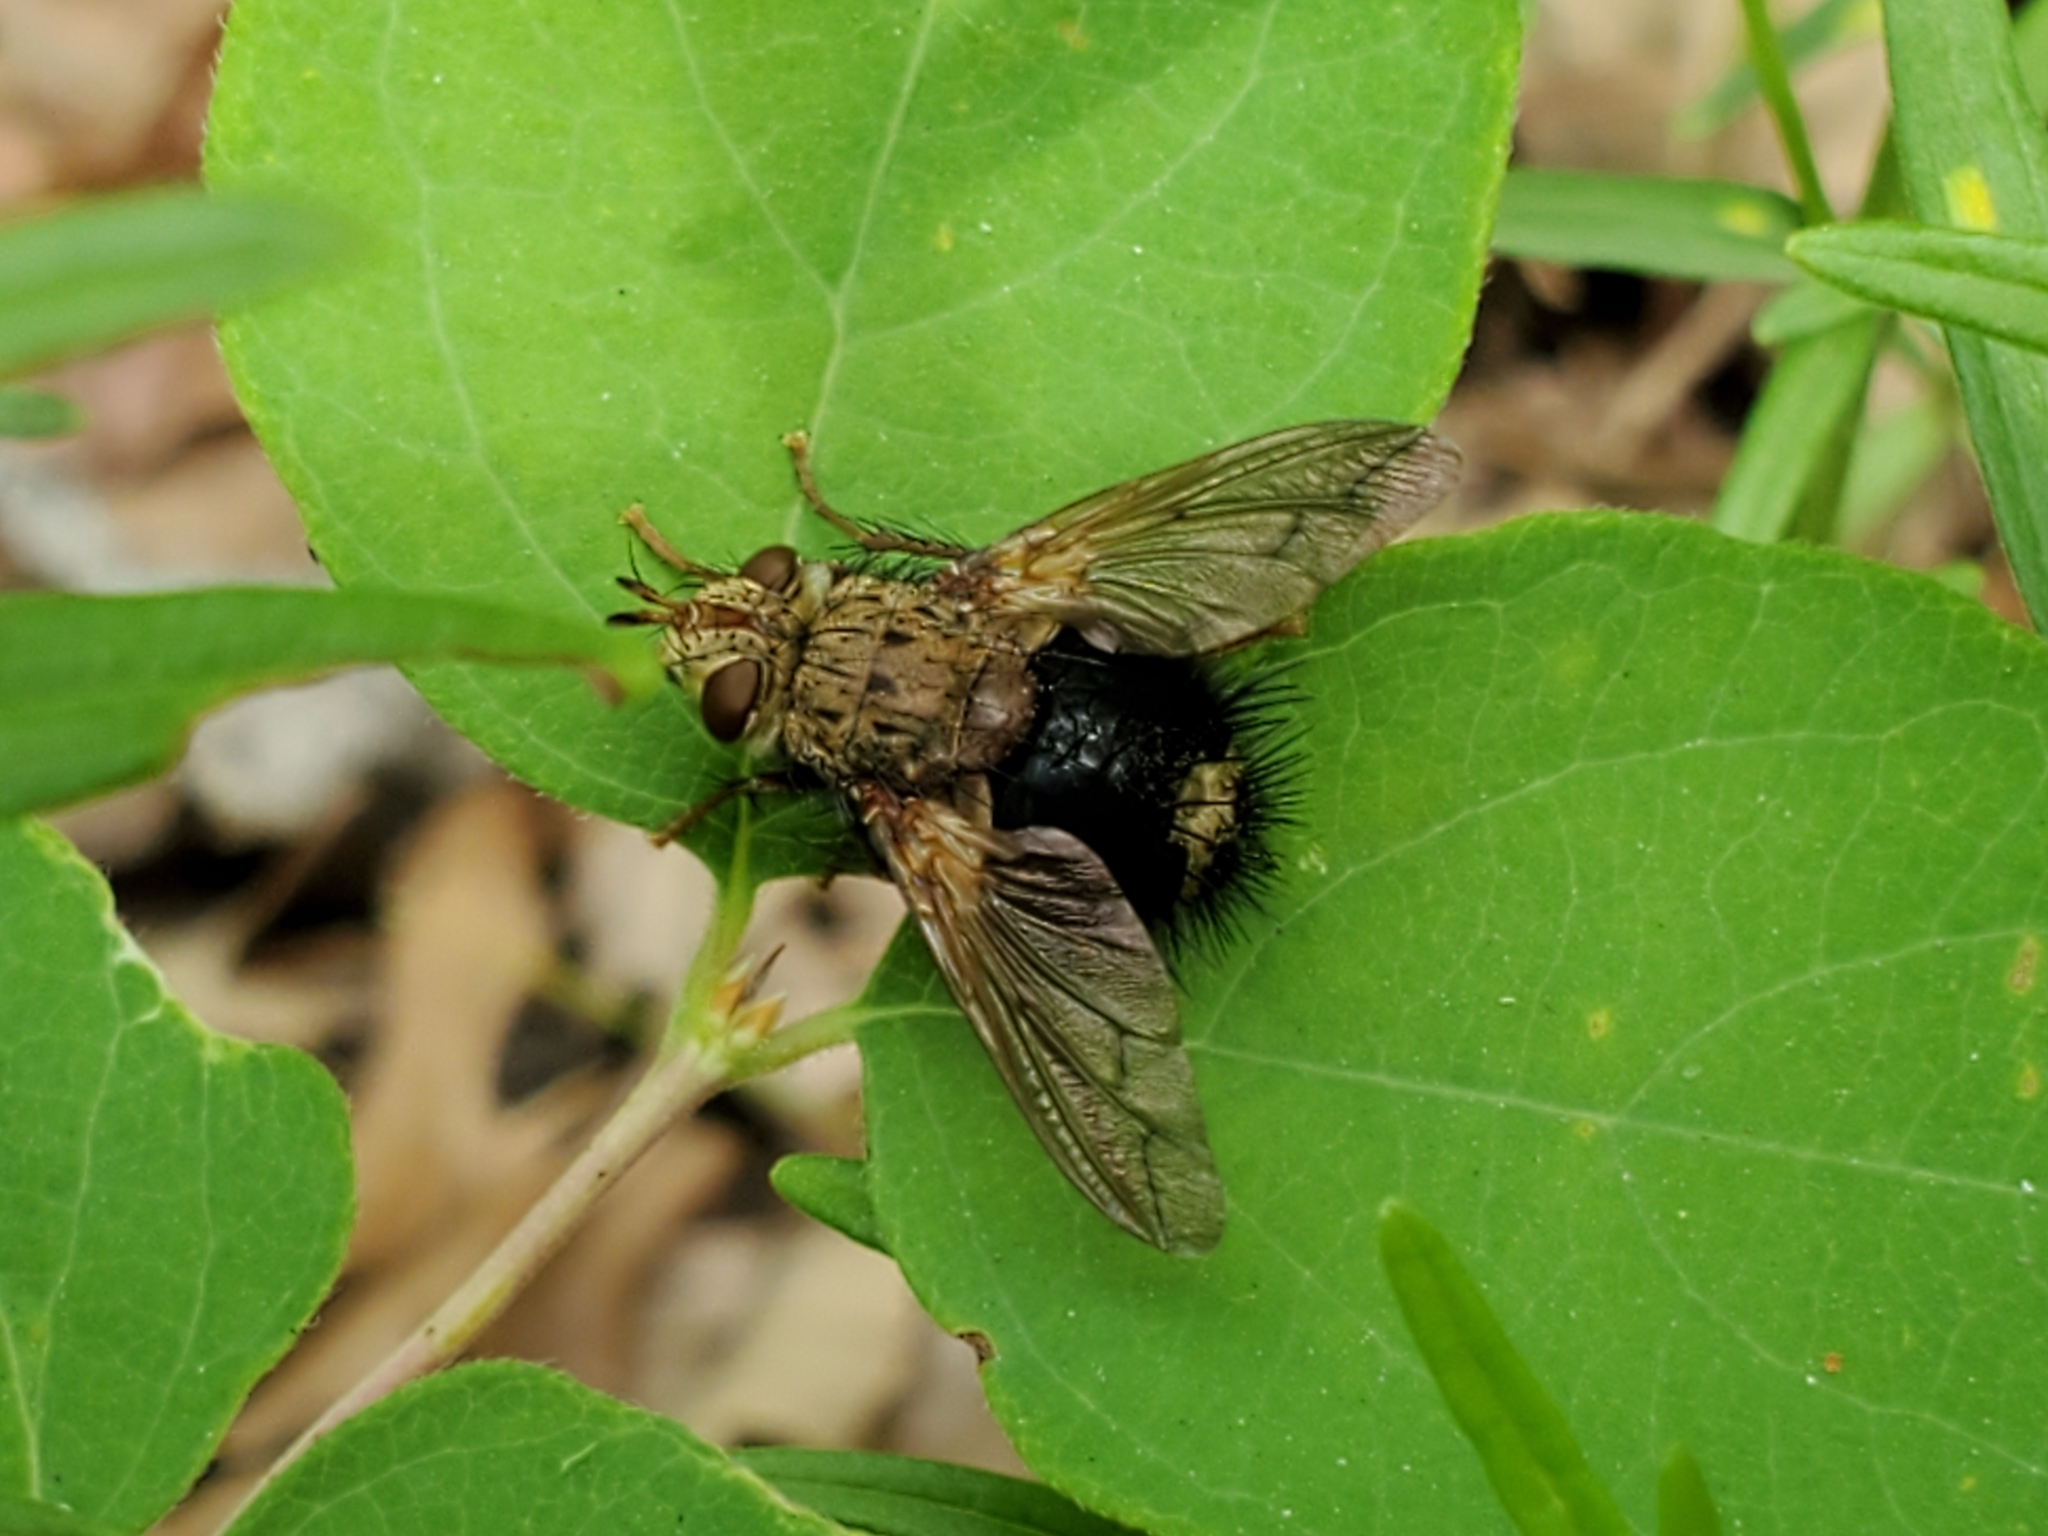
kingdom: Animalia
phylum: Arthropoda
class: Insecta
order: Diptera
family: Tachinidae
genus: Epalpus
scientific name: Epalpus signifer
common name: Early tachinid fly
